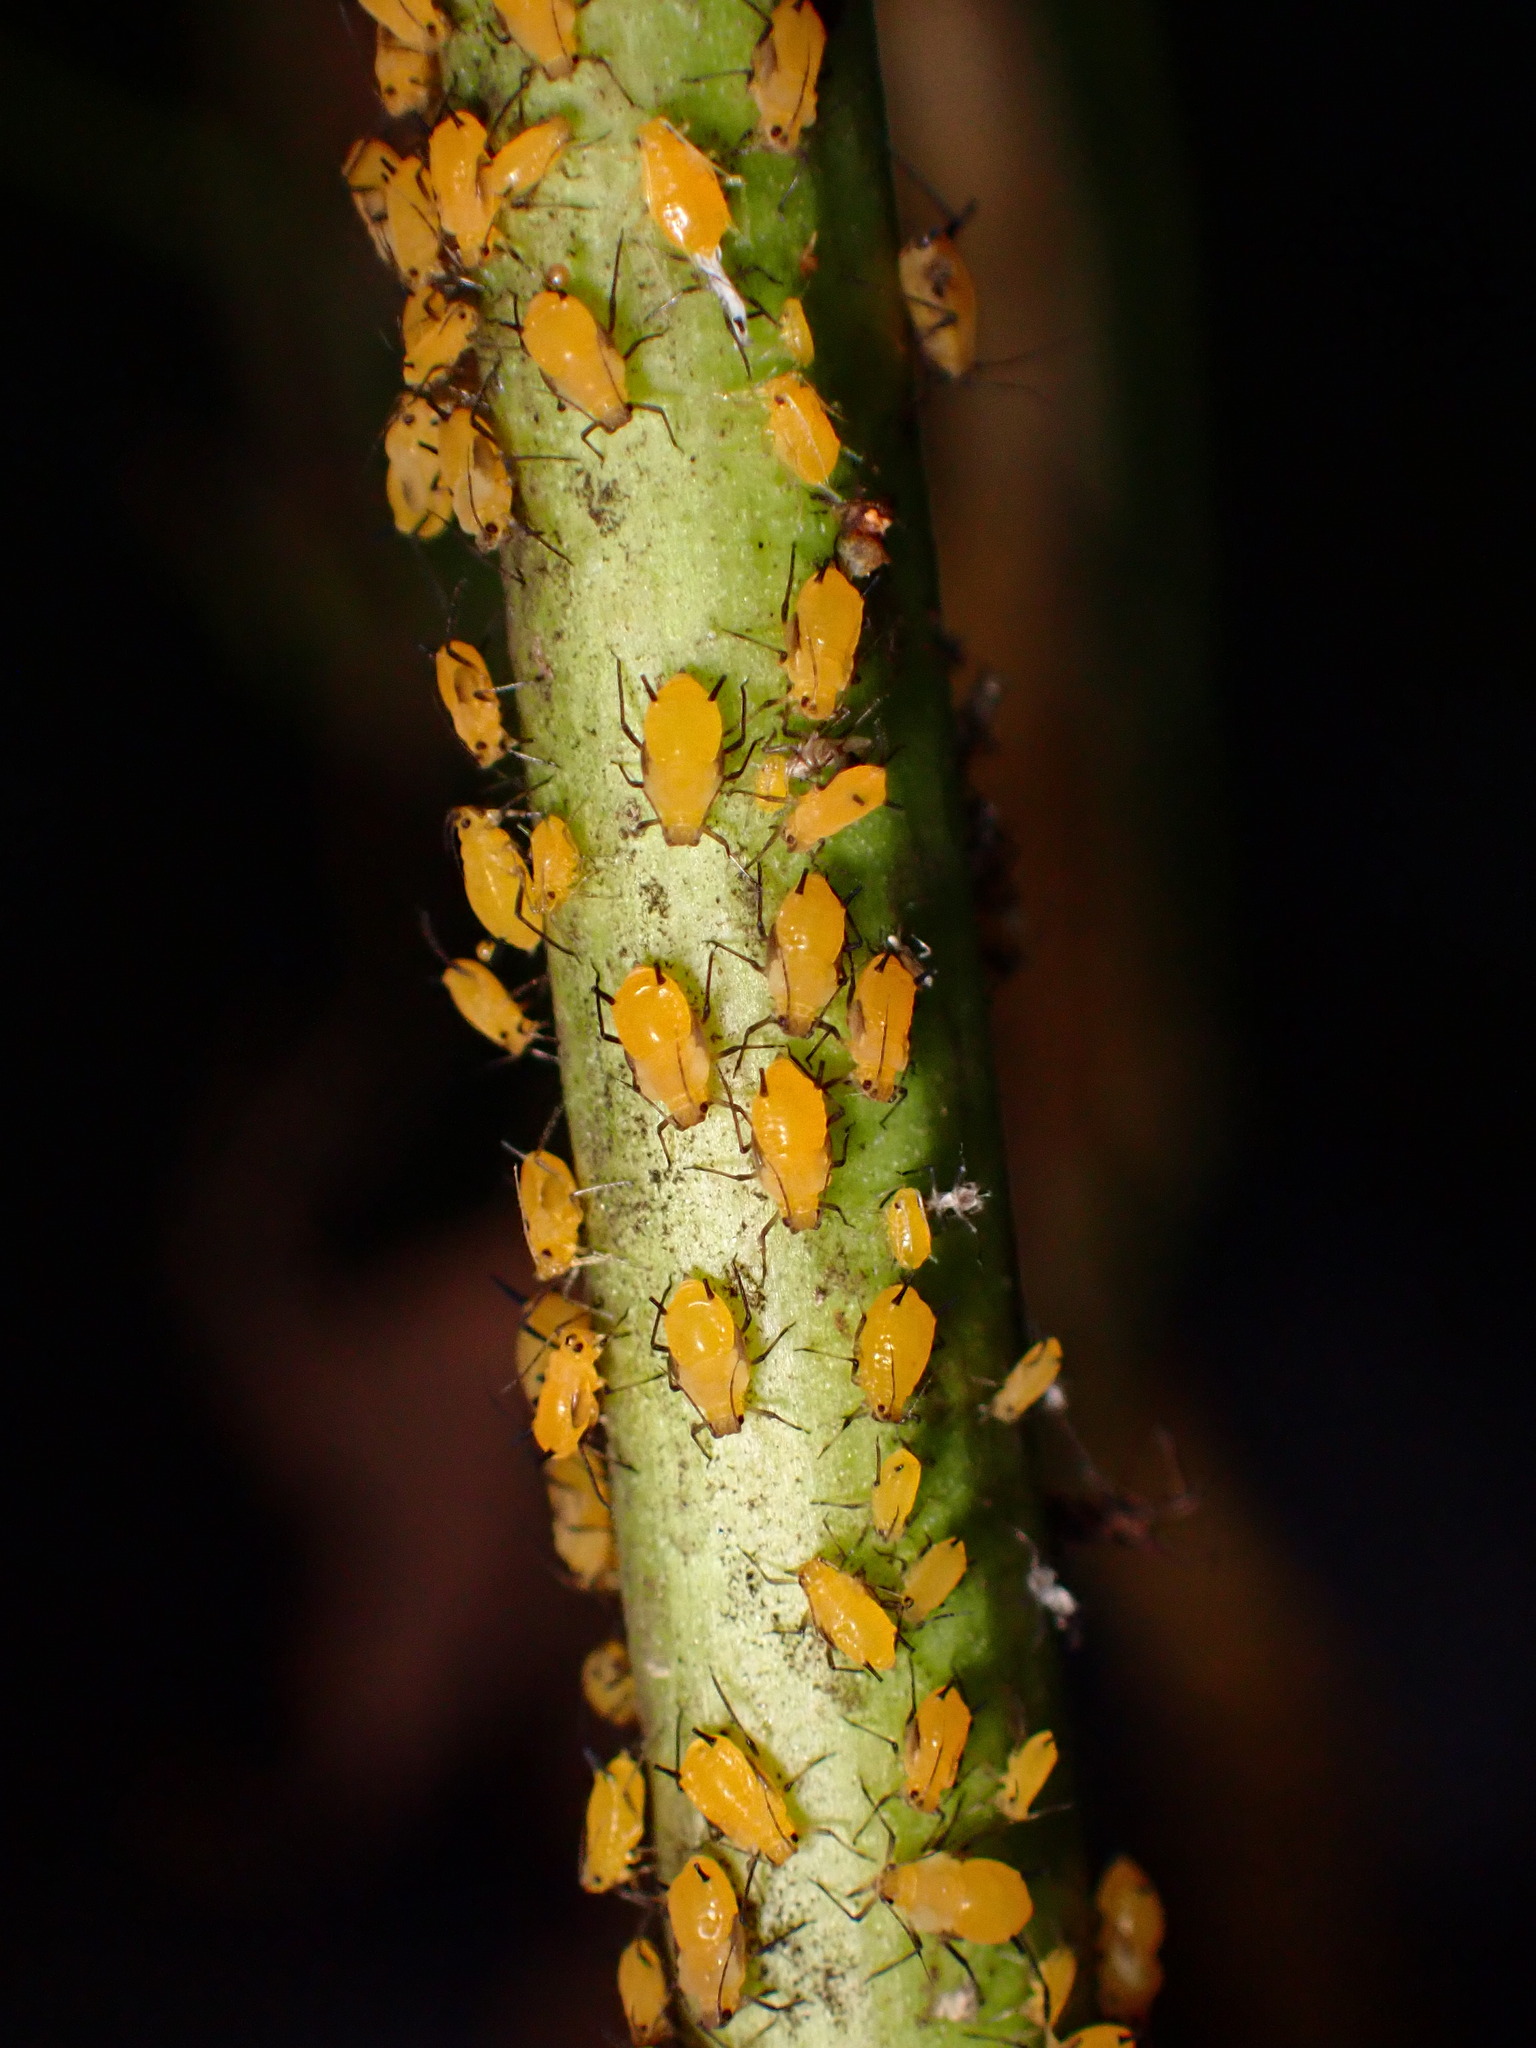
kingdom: Animalia
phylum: Arthropoda
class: Insecta
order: Hemiptera
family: Aphididae
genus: Aphis
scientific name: Aphis nerii
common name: Oleander aphid
